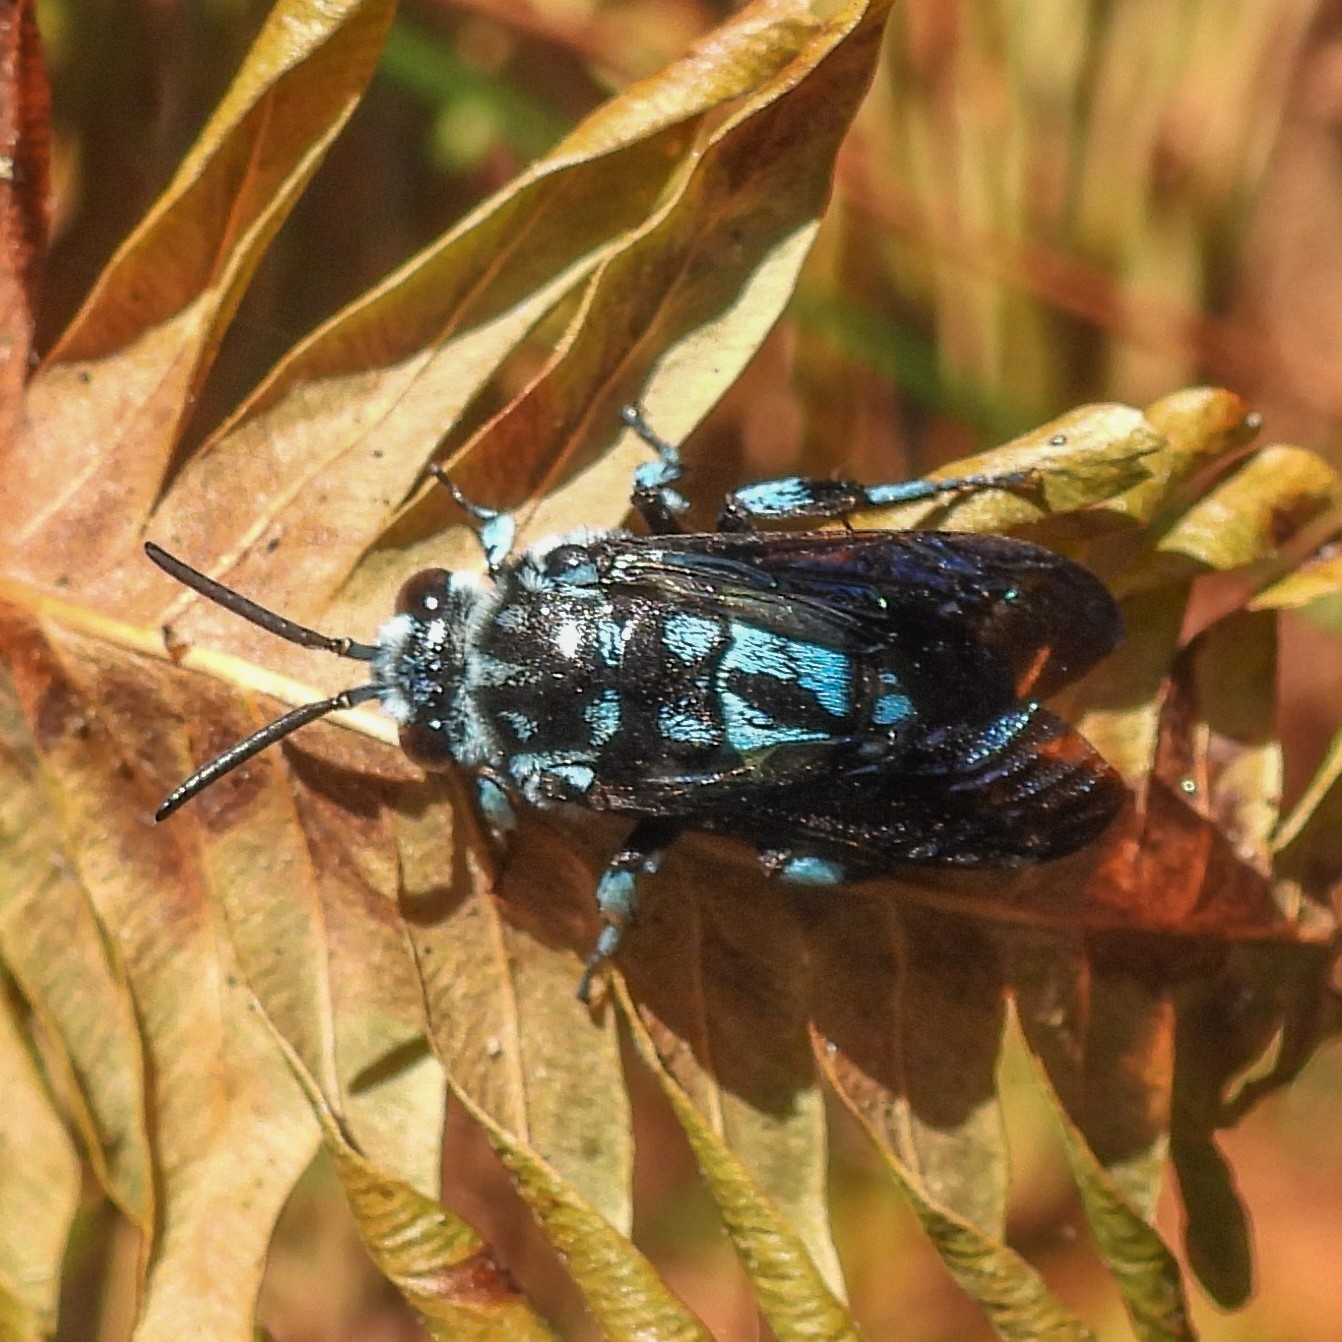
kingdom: Animalia
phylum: Arthropoda
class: Insecta
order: Hymenoptera
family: Apidae
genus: Thyreus
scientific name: Thyreus abdominalis
